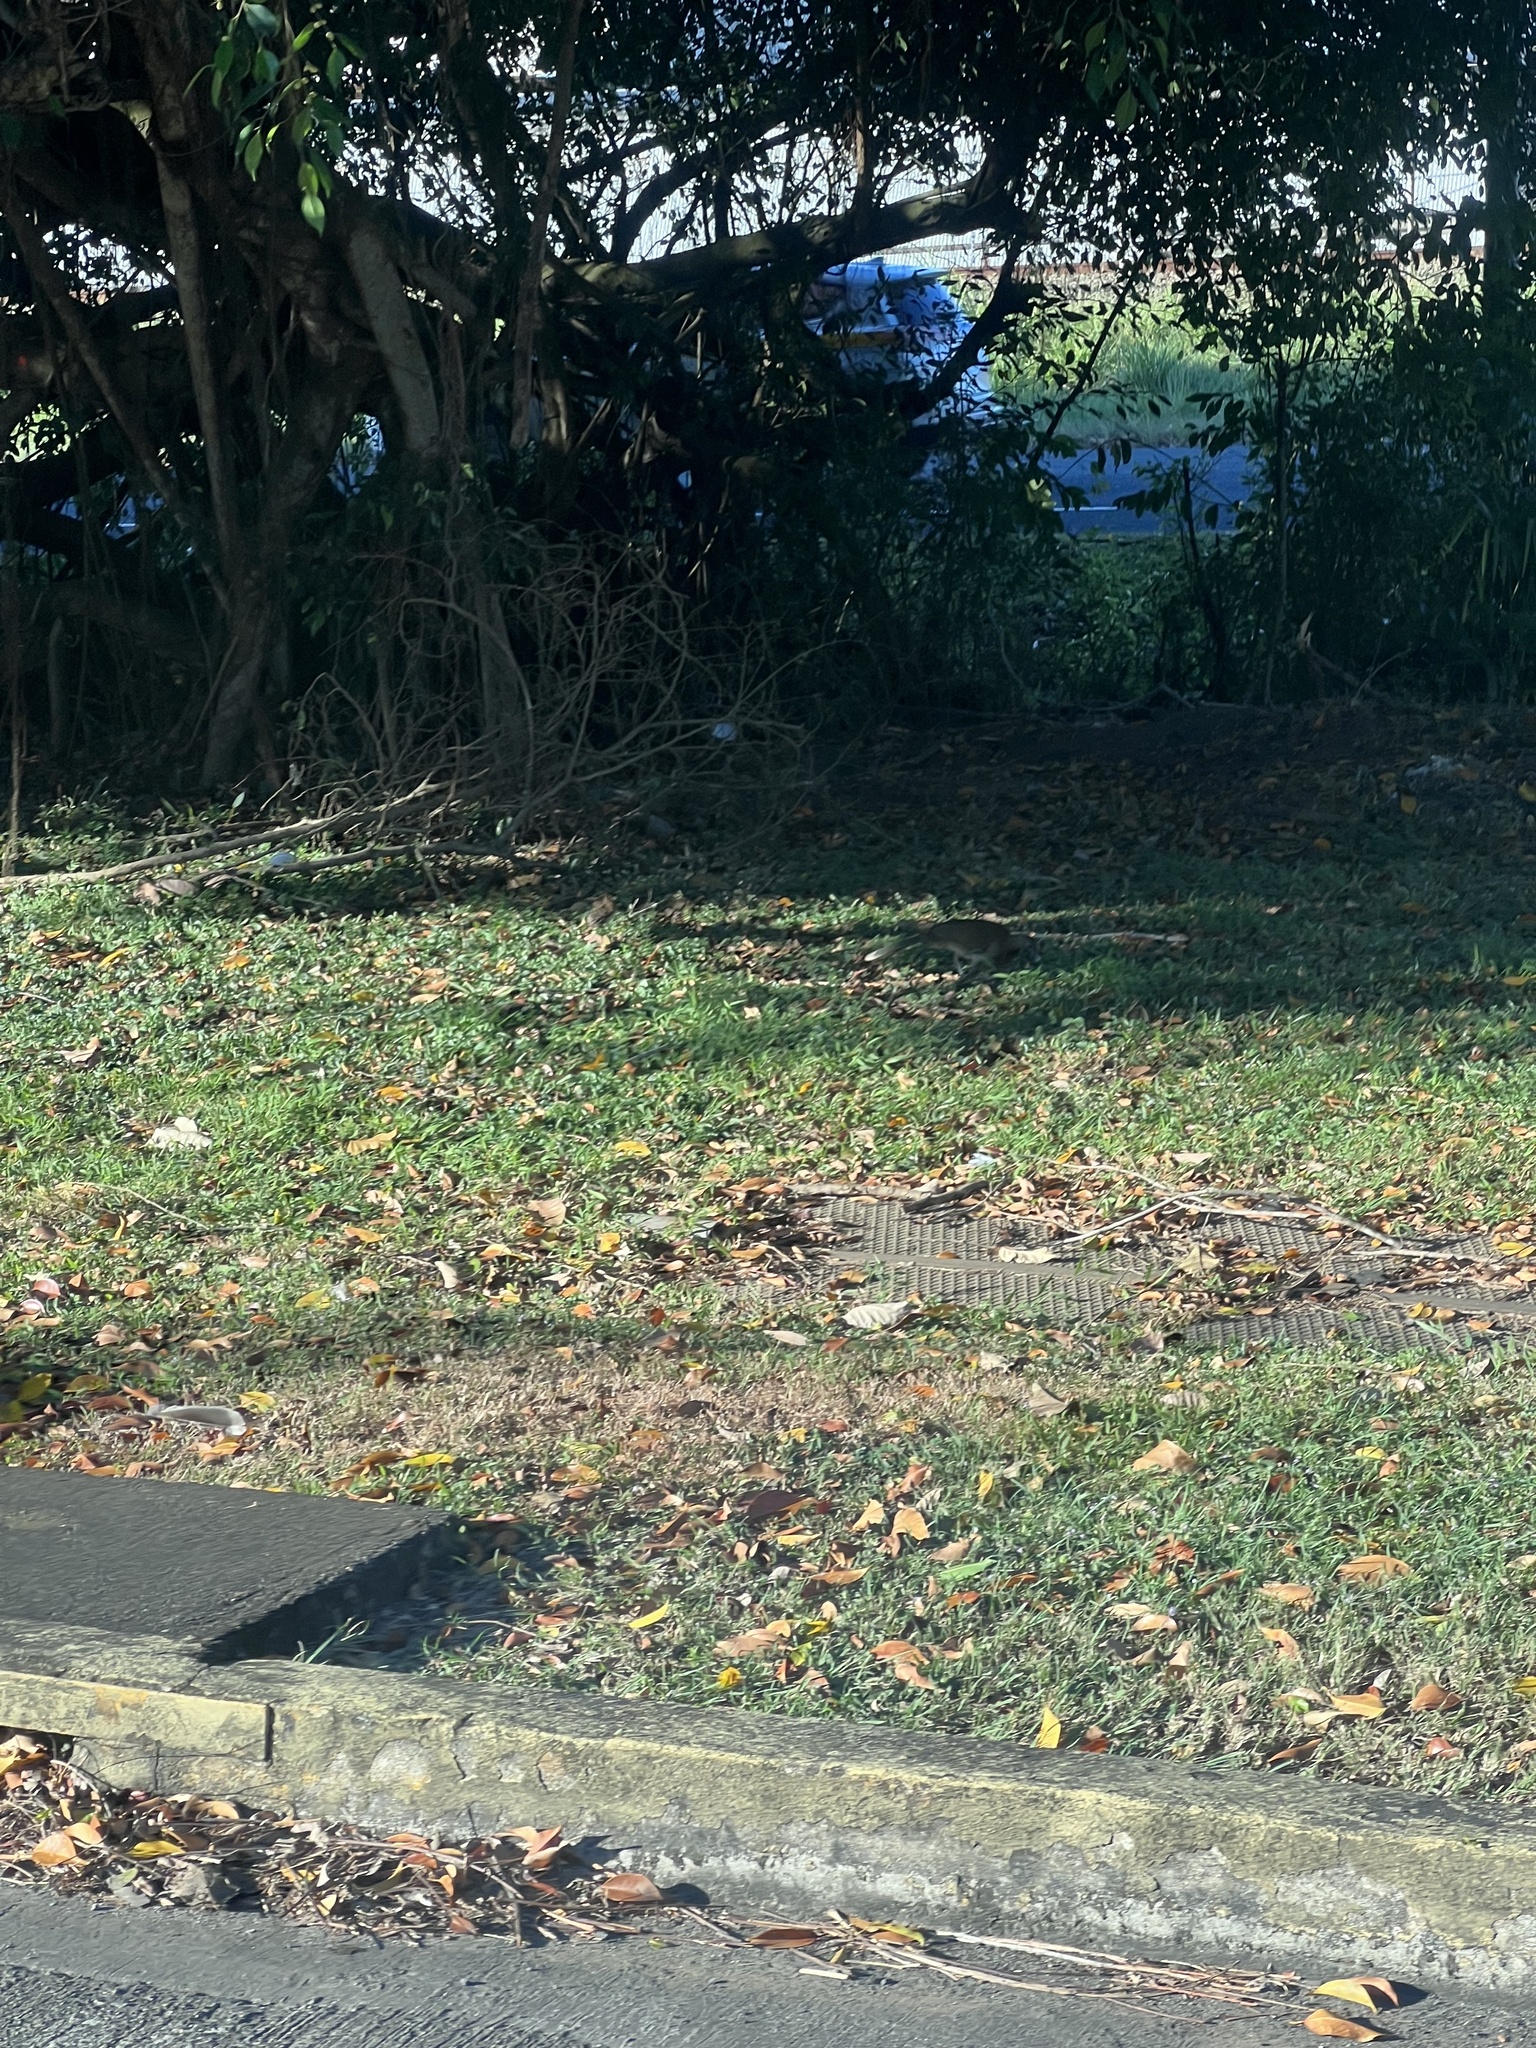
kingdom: Animalia
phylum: Chordata
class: Aves
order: Galliformes
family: Cracidae
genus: Ortalis
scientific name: Ortalis cinereiceps
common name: Grey-headed chachalaca
